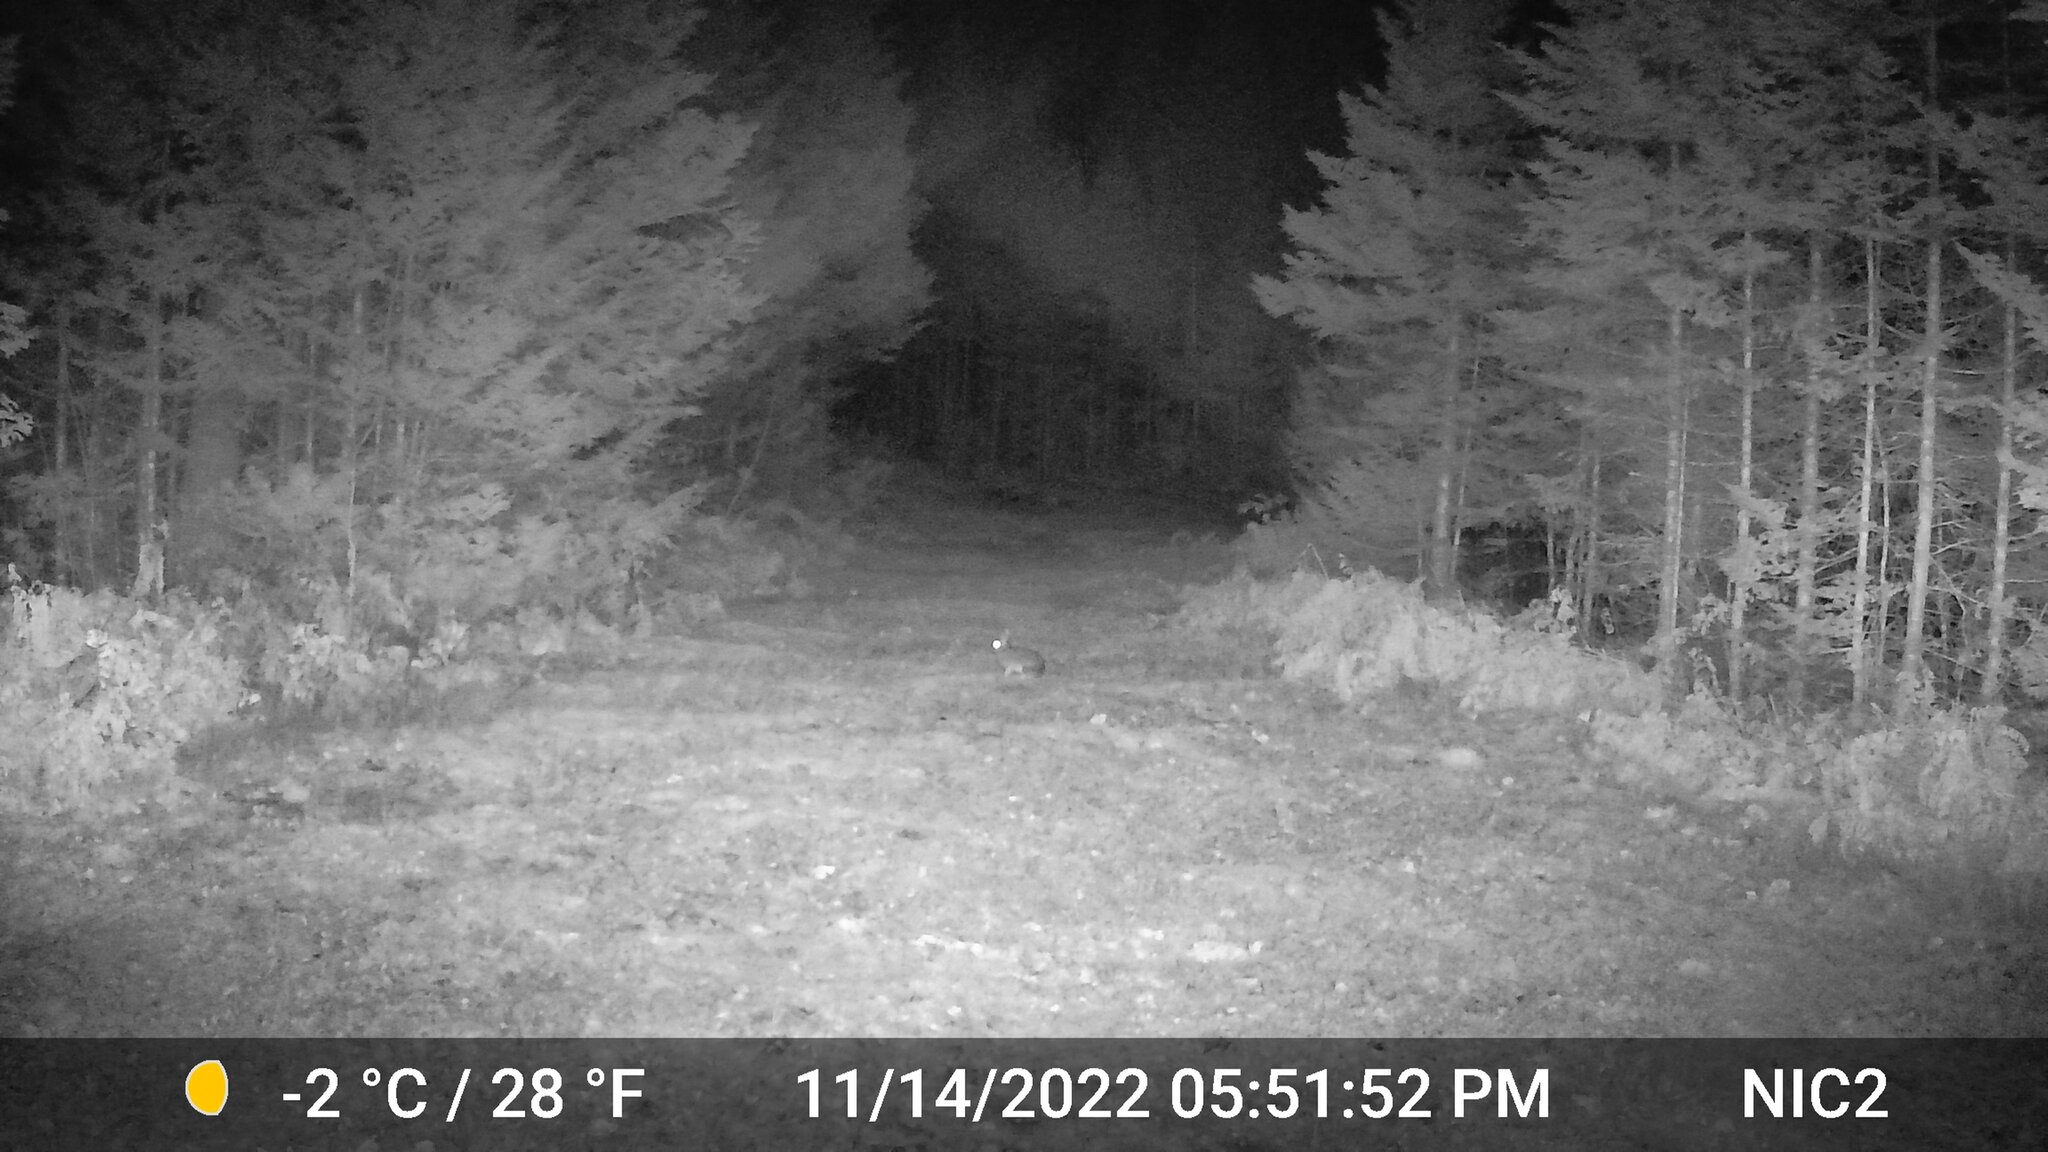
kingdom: Animalia
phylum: Chordata
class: Mammalia
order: Lagomorpha
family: Leporidae
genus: Lepus
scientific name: Lepus americanus
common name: Snowshoe hare
